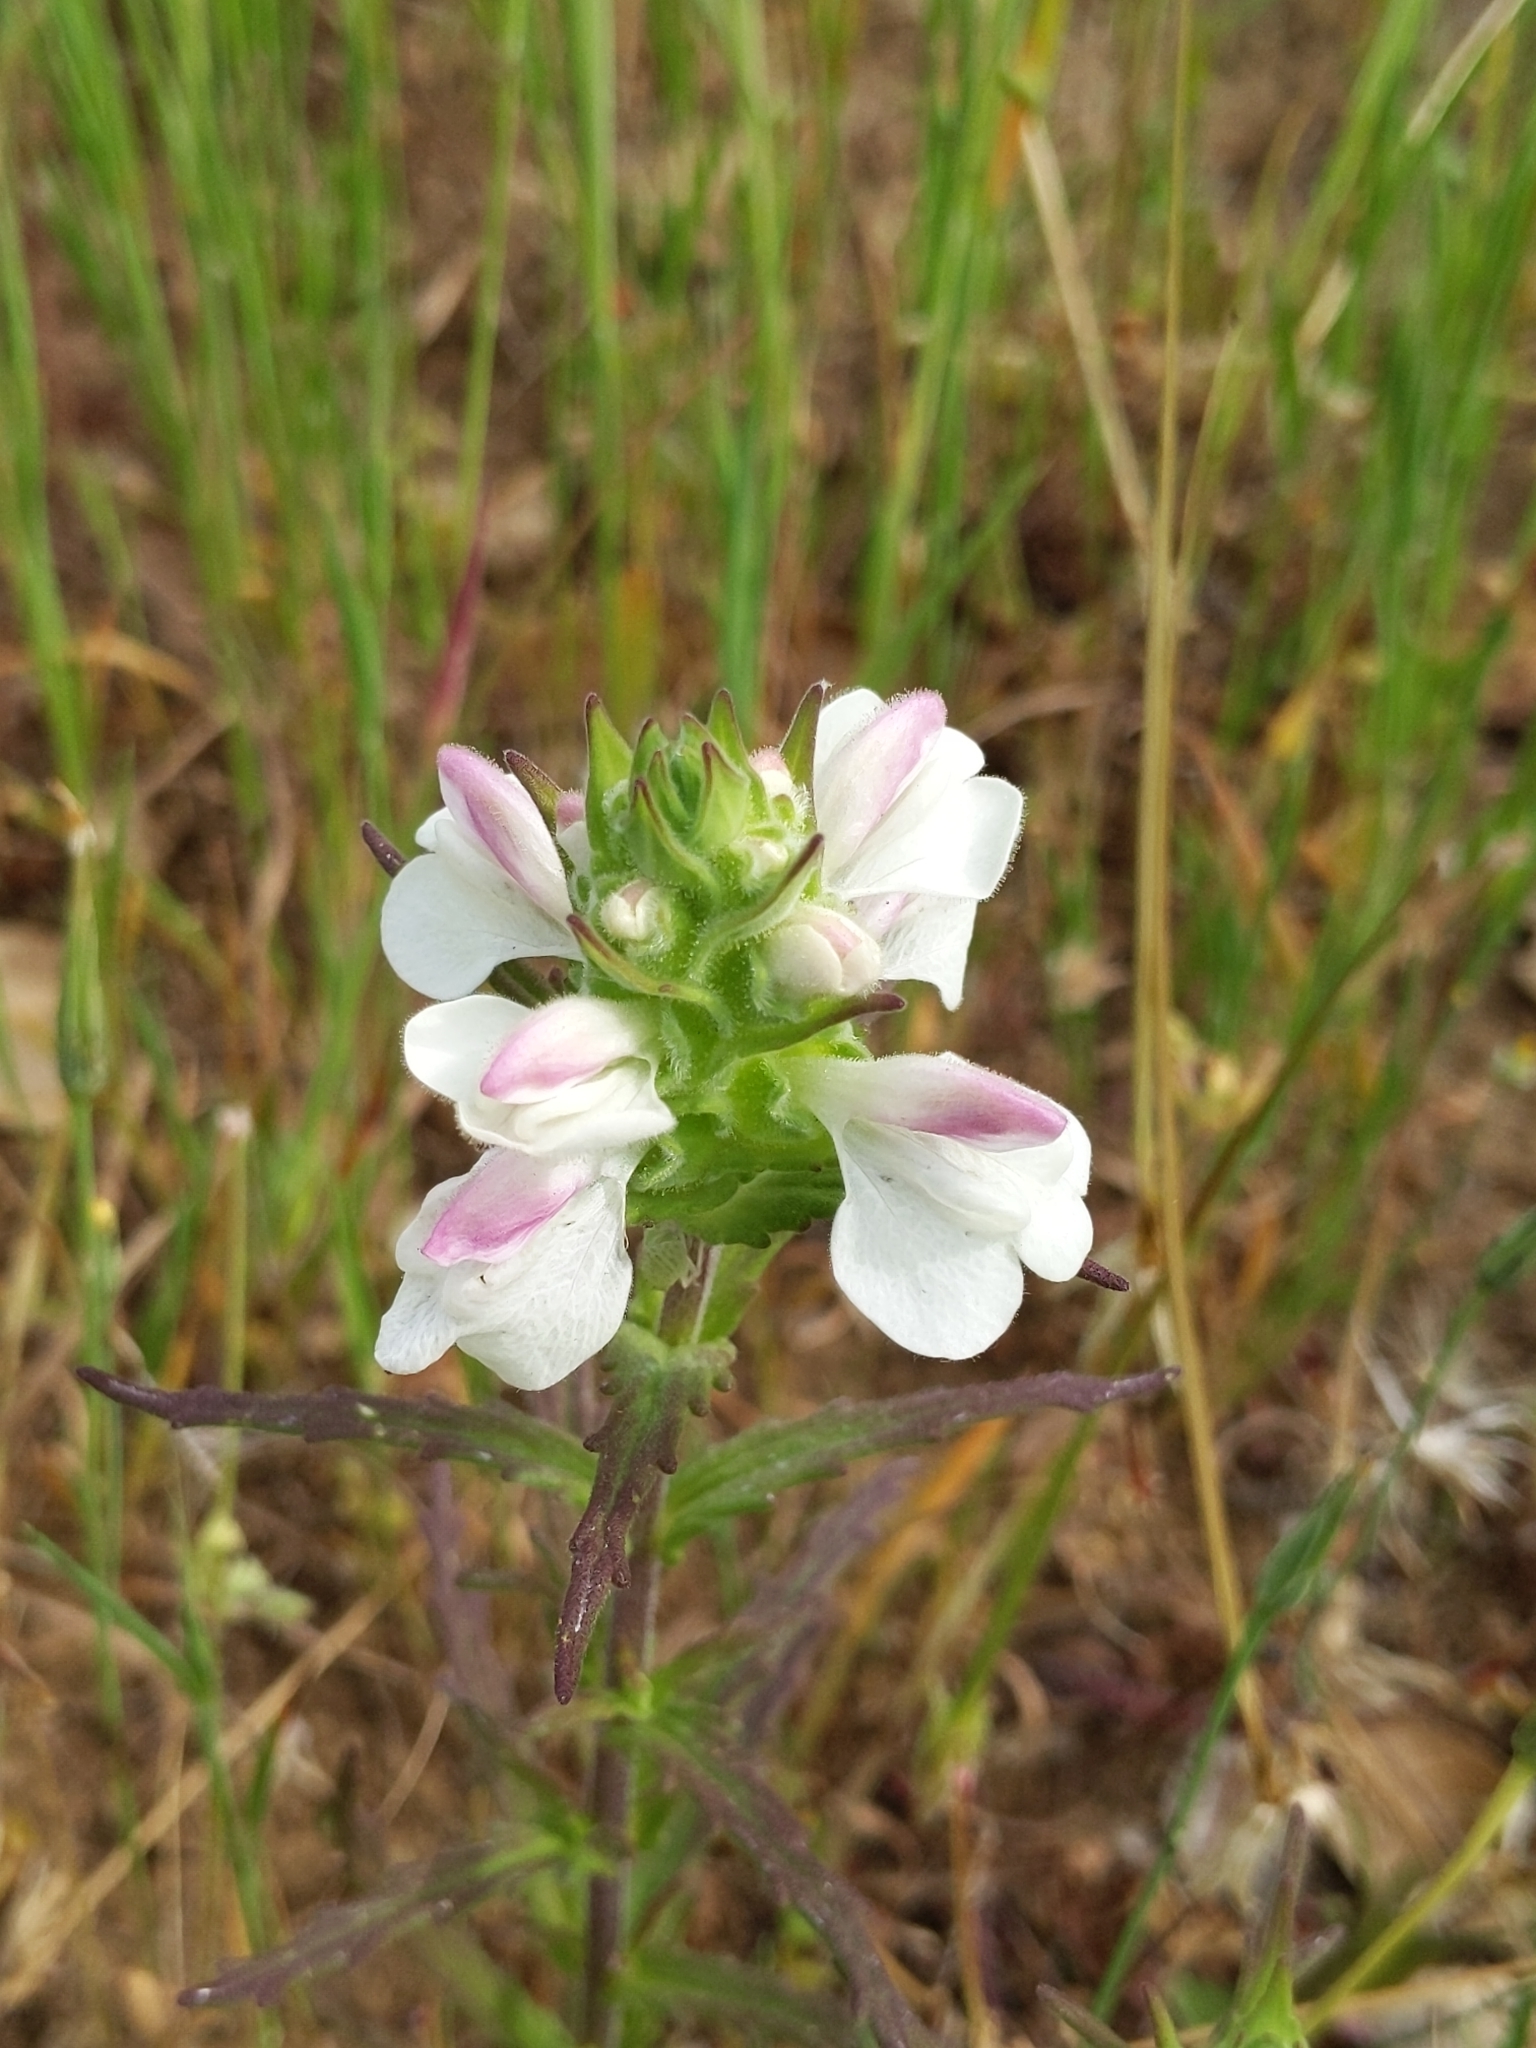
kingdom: Plantae
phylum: Tracheophyta
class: Magnoliopsida
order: Lamiales
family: Orobanchaceae
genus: Bellardia
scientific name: Bellardia trixago
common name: Mediterranean lineseed
